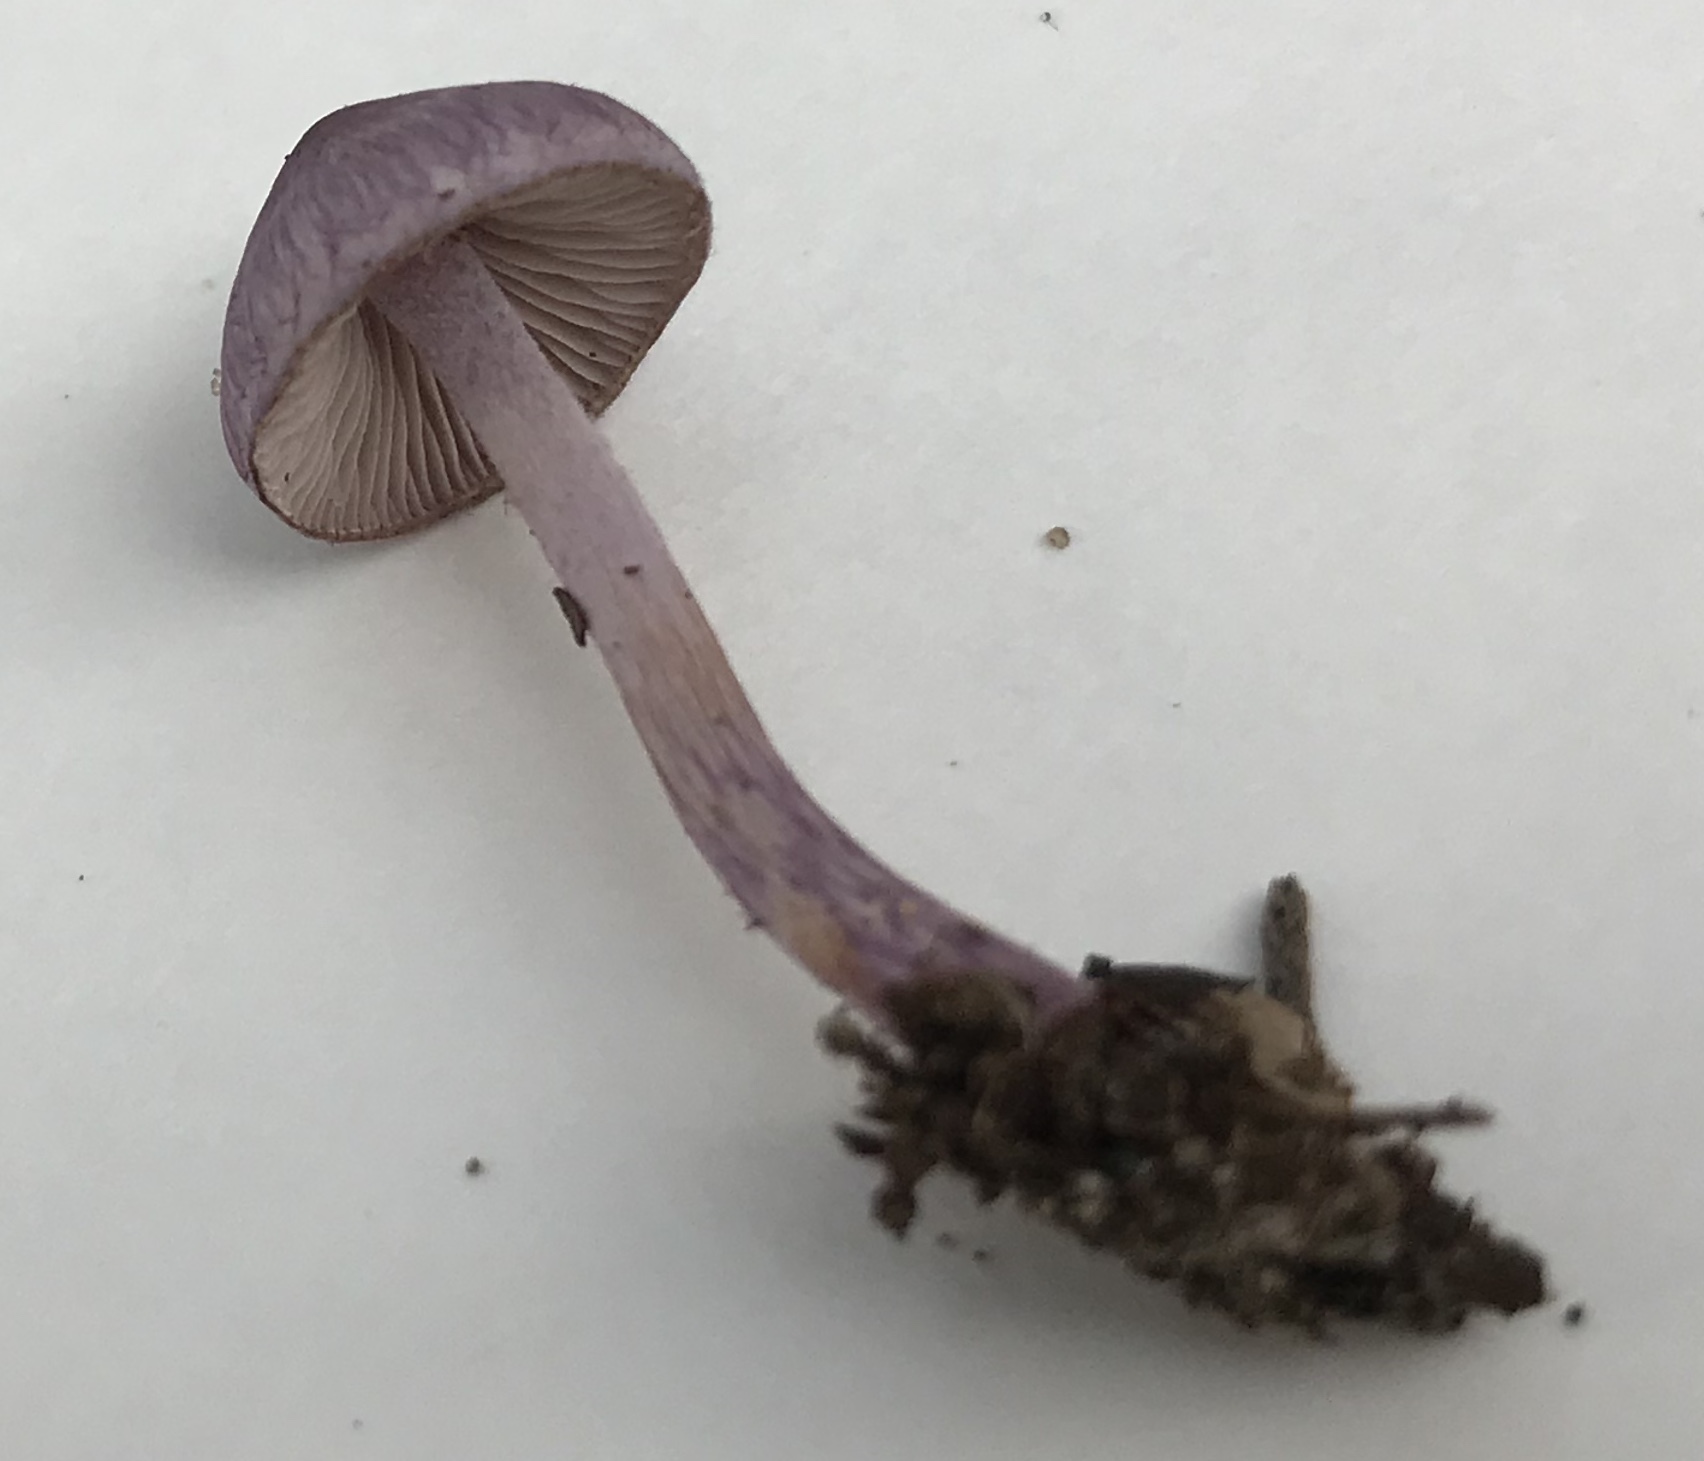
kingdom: Fungi
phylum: Basidiomycota
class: Agaricomycetes
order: Agaricales
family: Inocybaceae
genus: Inocybe
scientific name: Inocybe geophylla
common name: White fibrecap
